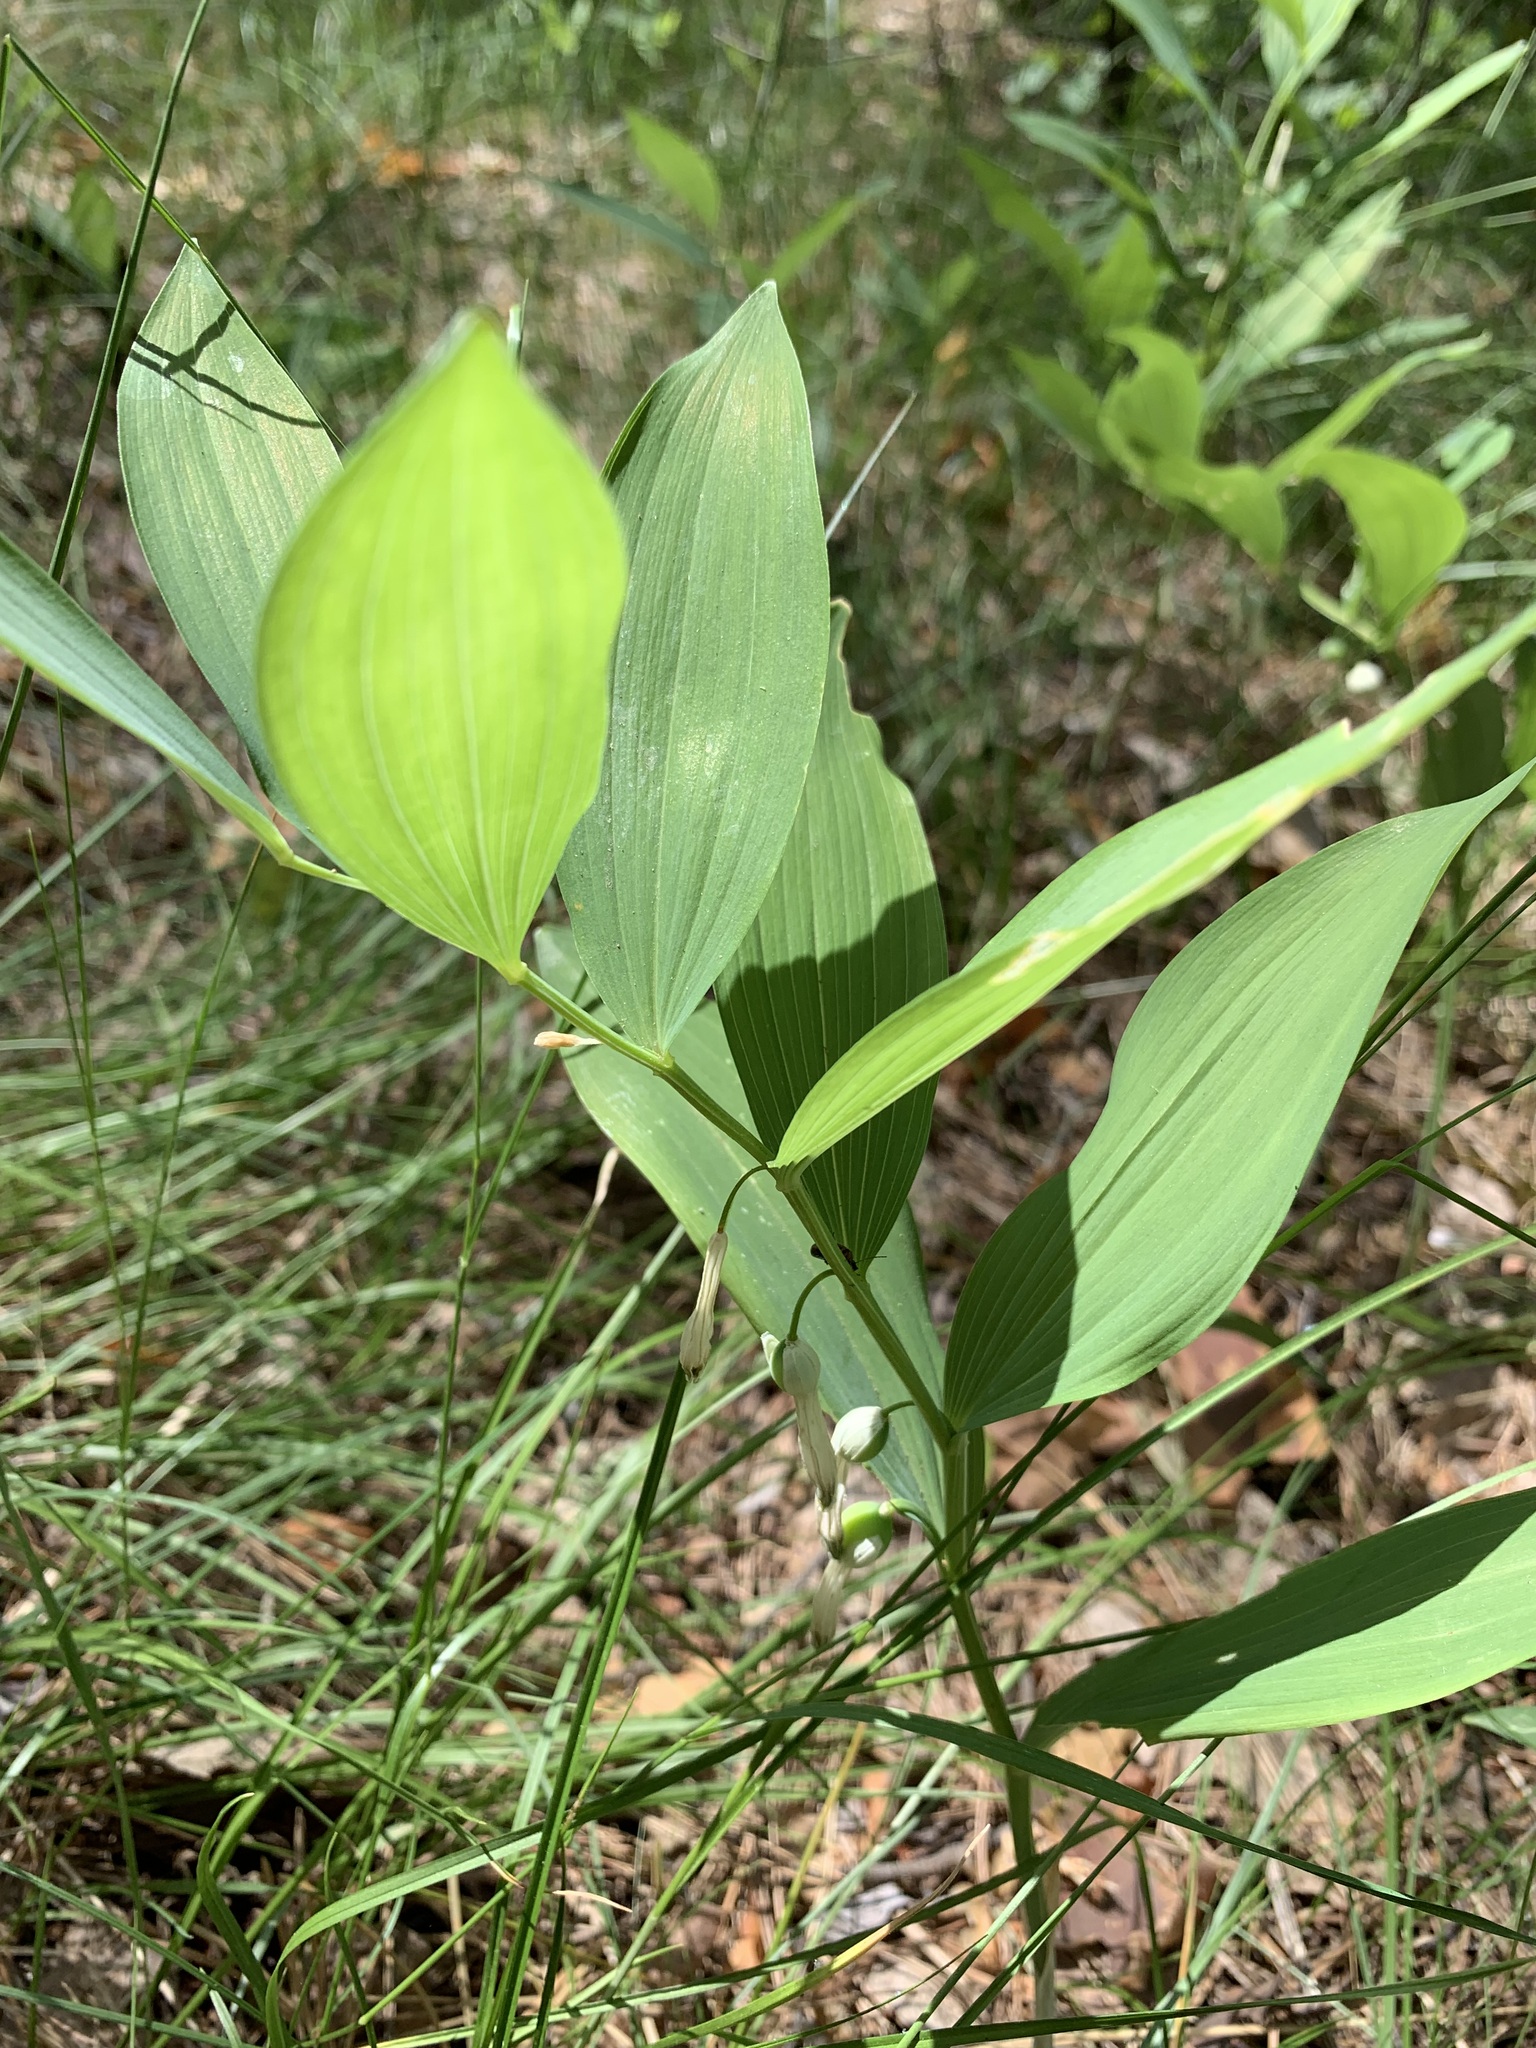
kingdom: Plantae
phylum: Tracheophyta
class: Liliopsida
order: Asparagales
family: Asparagaceae
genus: Polygonatum
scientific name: Polygonatum odoratum
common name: Angular solomon's-seal
